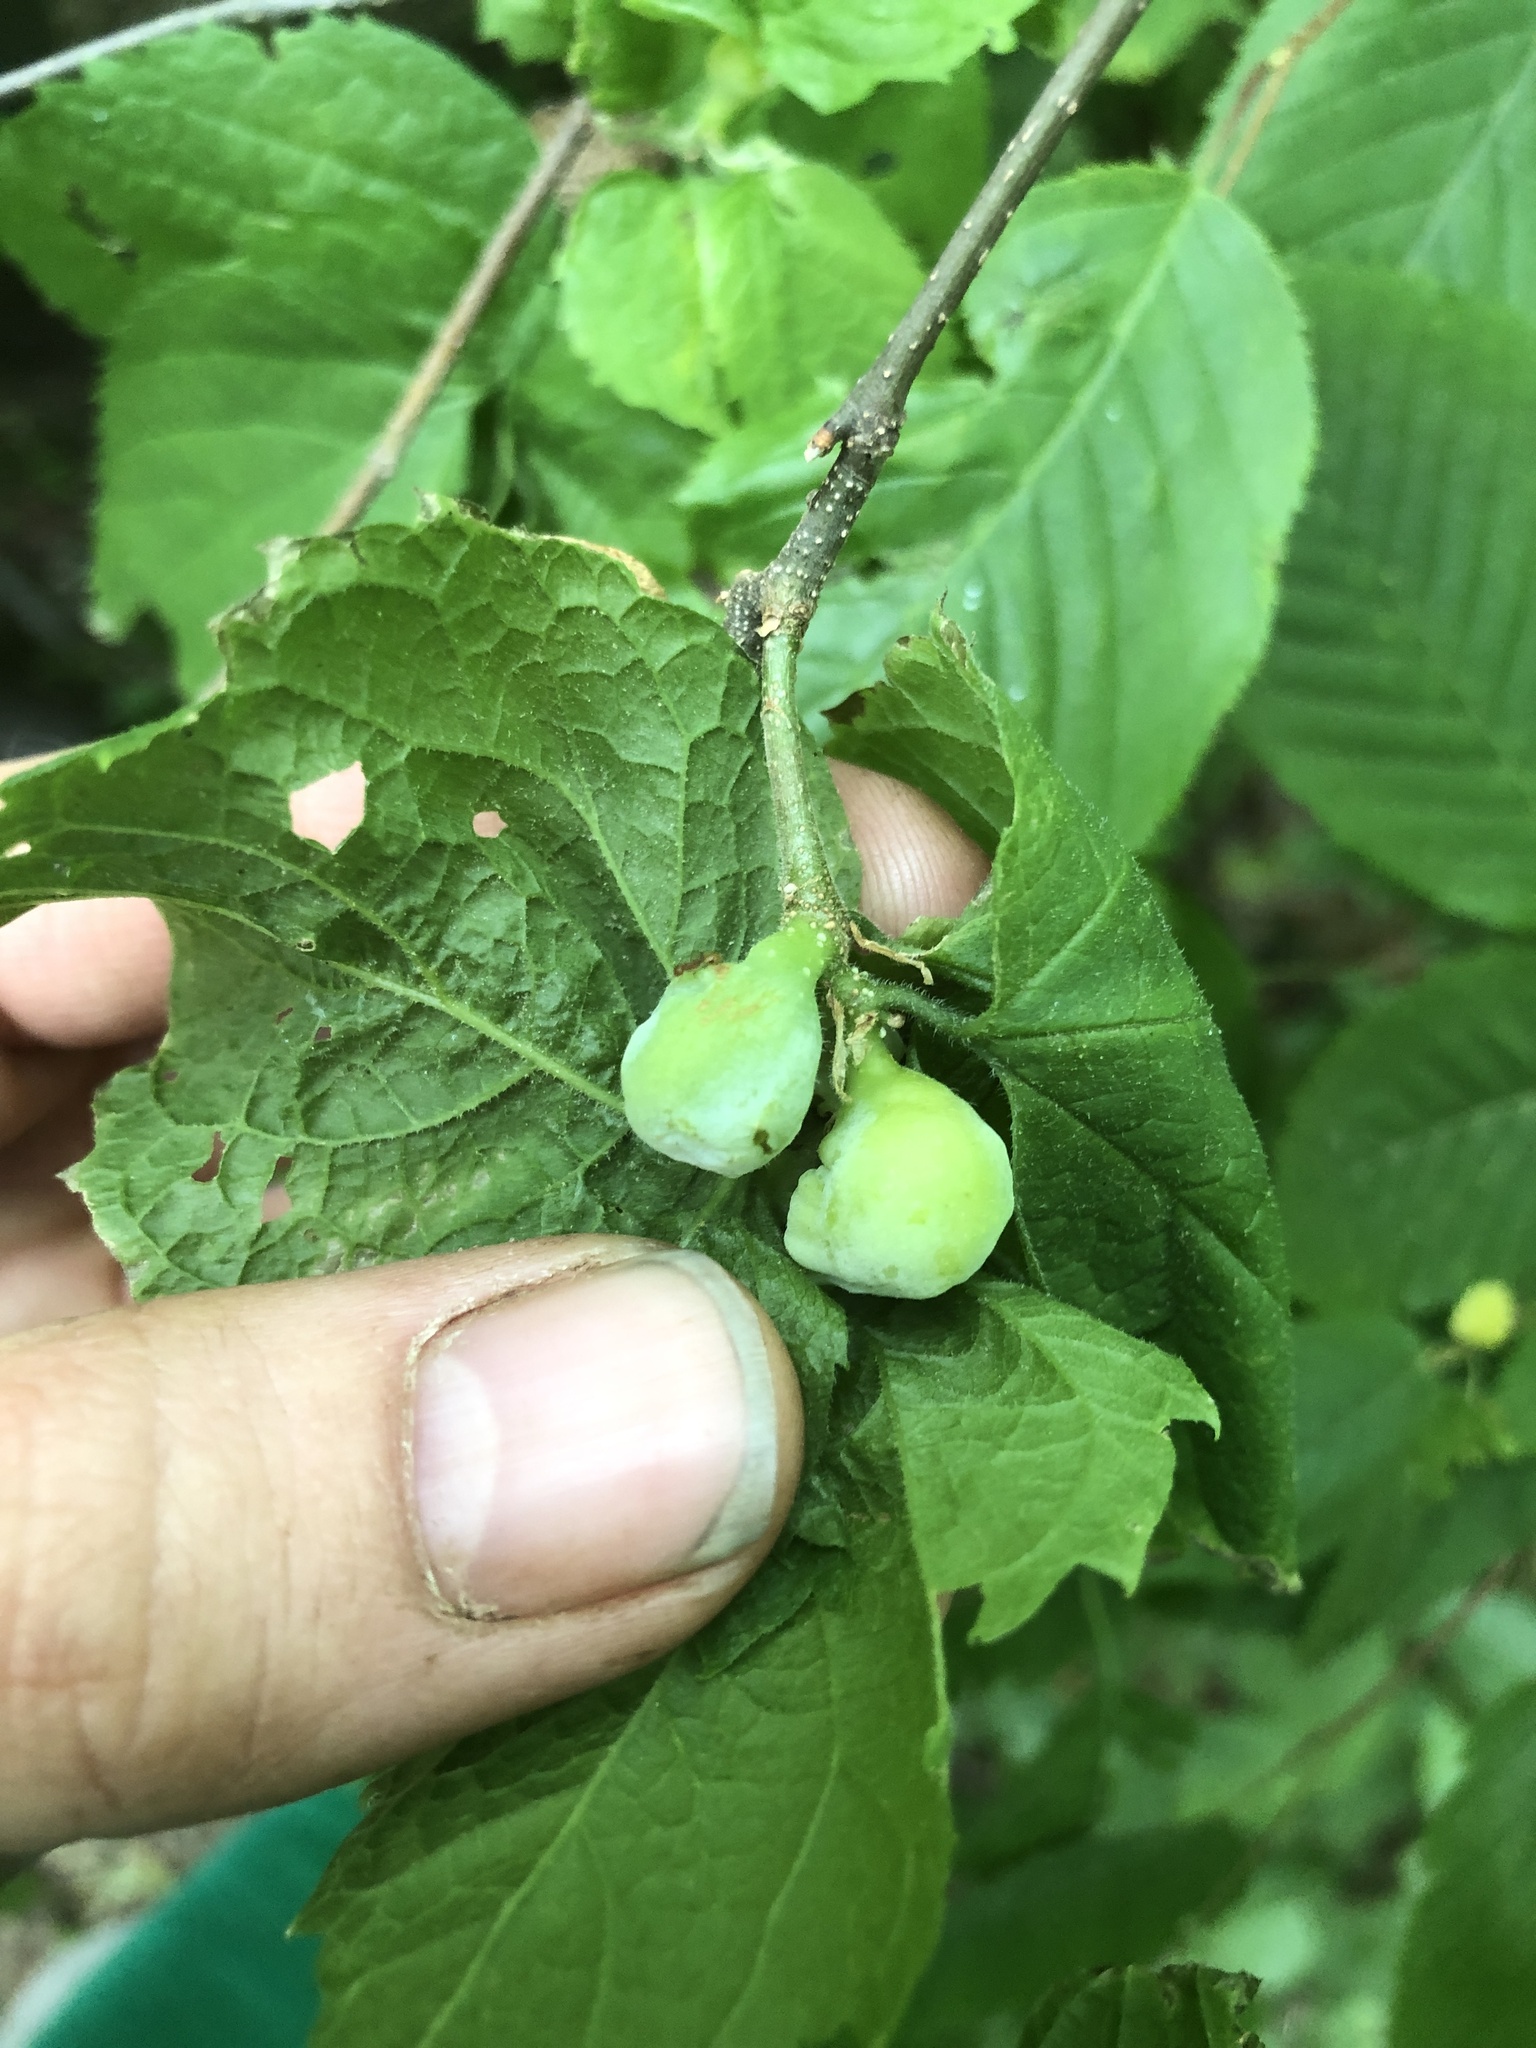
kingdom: Animalia
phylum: Arthropoda
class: Insecta
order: Hemiptera
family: Aphalaridae
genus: Pachypsylla
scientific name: Pachypsylla venusta
